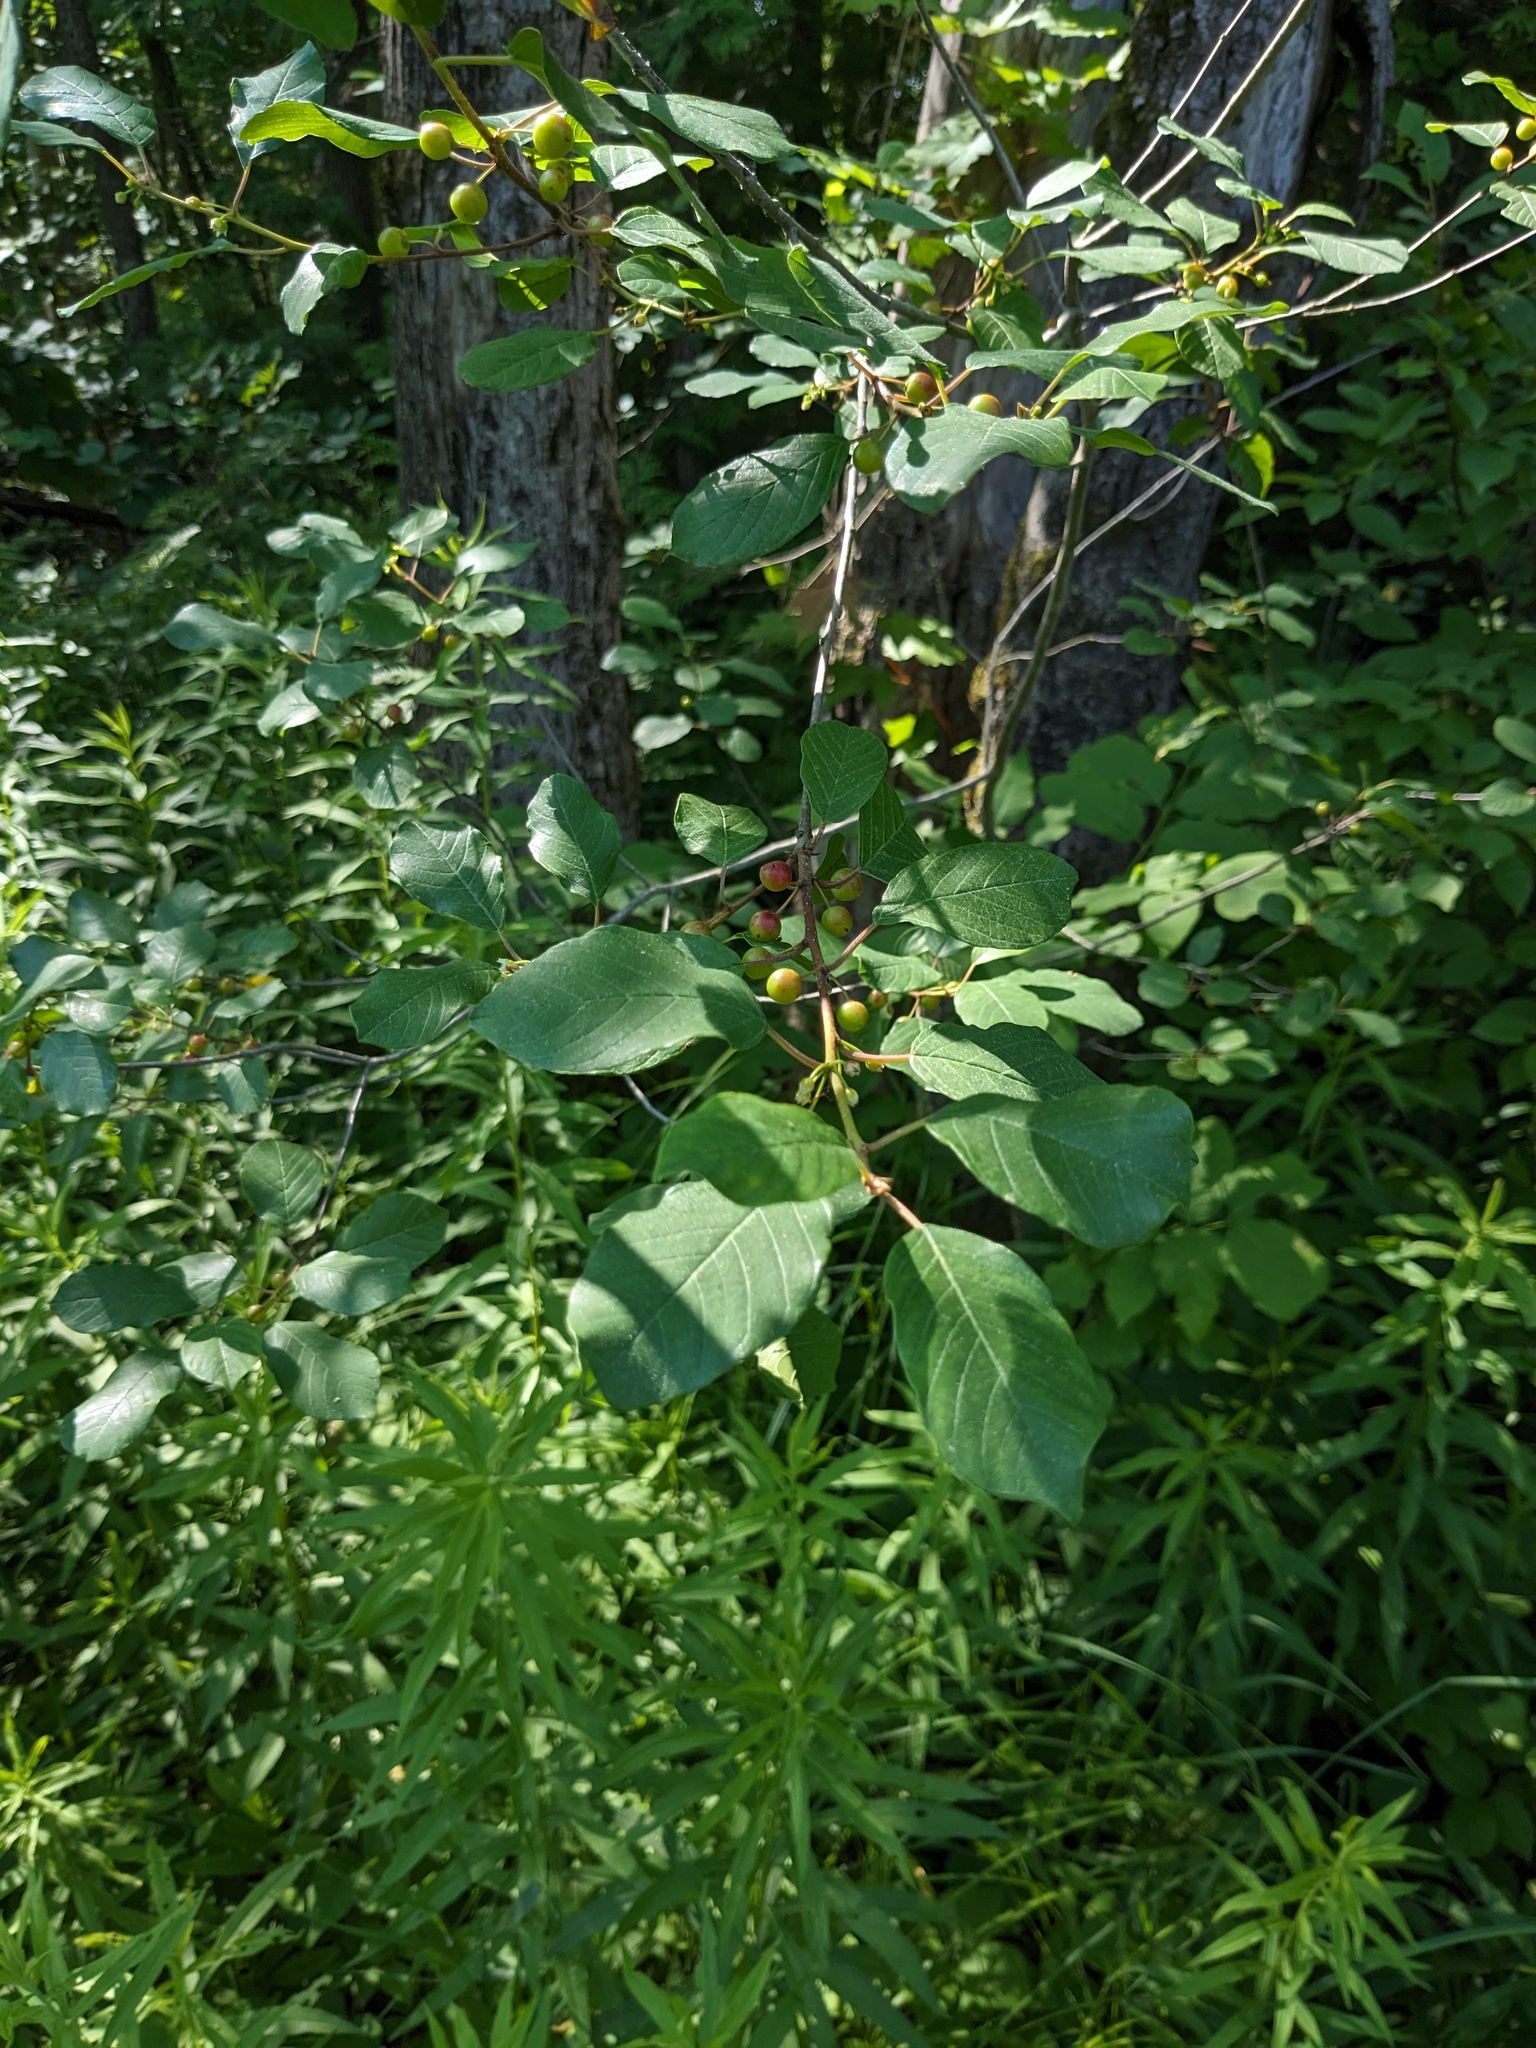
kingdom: Plantae
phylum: Tracheophyta
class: Magnoliopsida
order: Rosales
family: Rhamnaceae
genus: Frangula
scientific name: Frangula alnus
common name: Alder buckthorn
